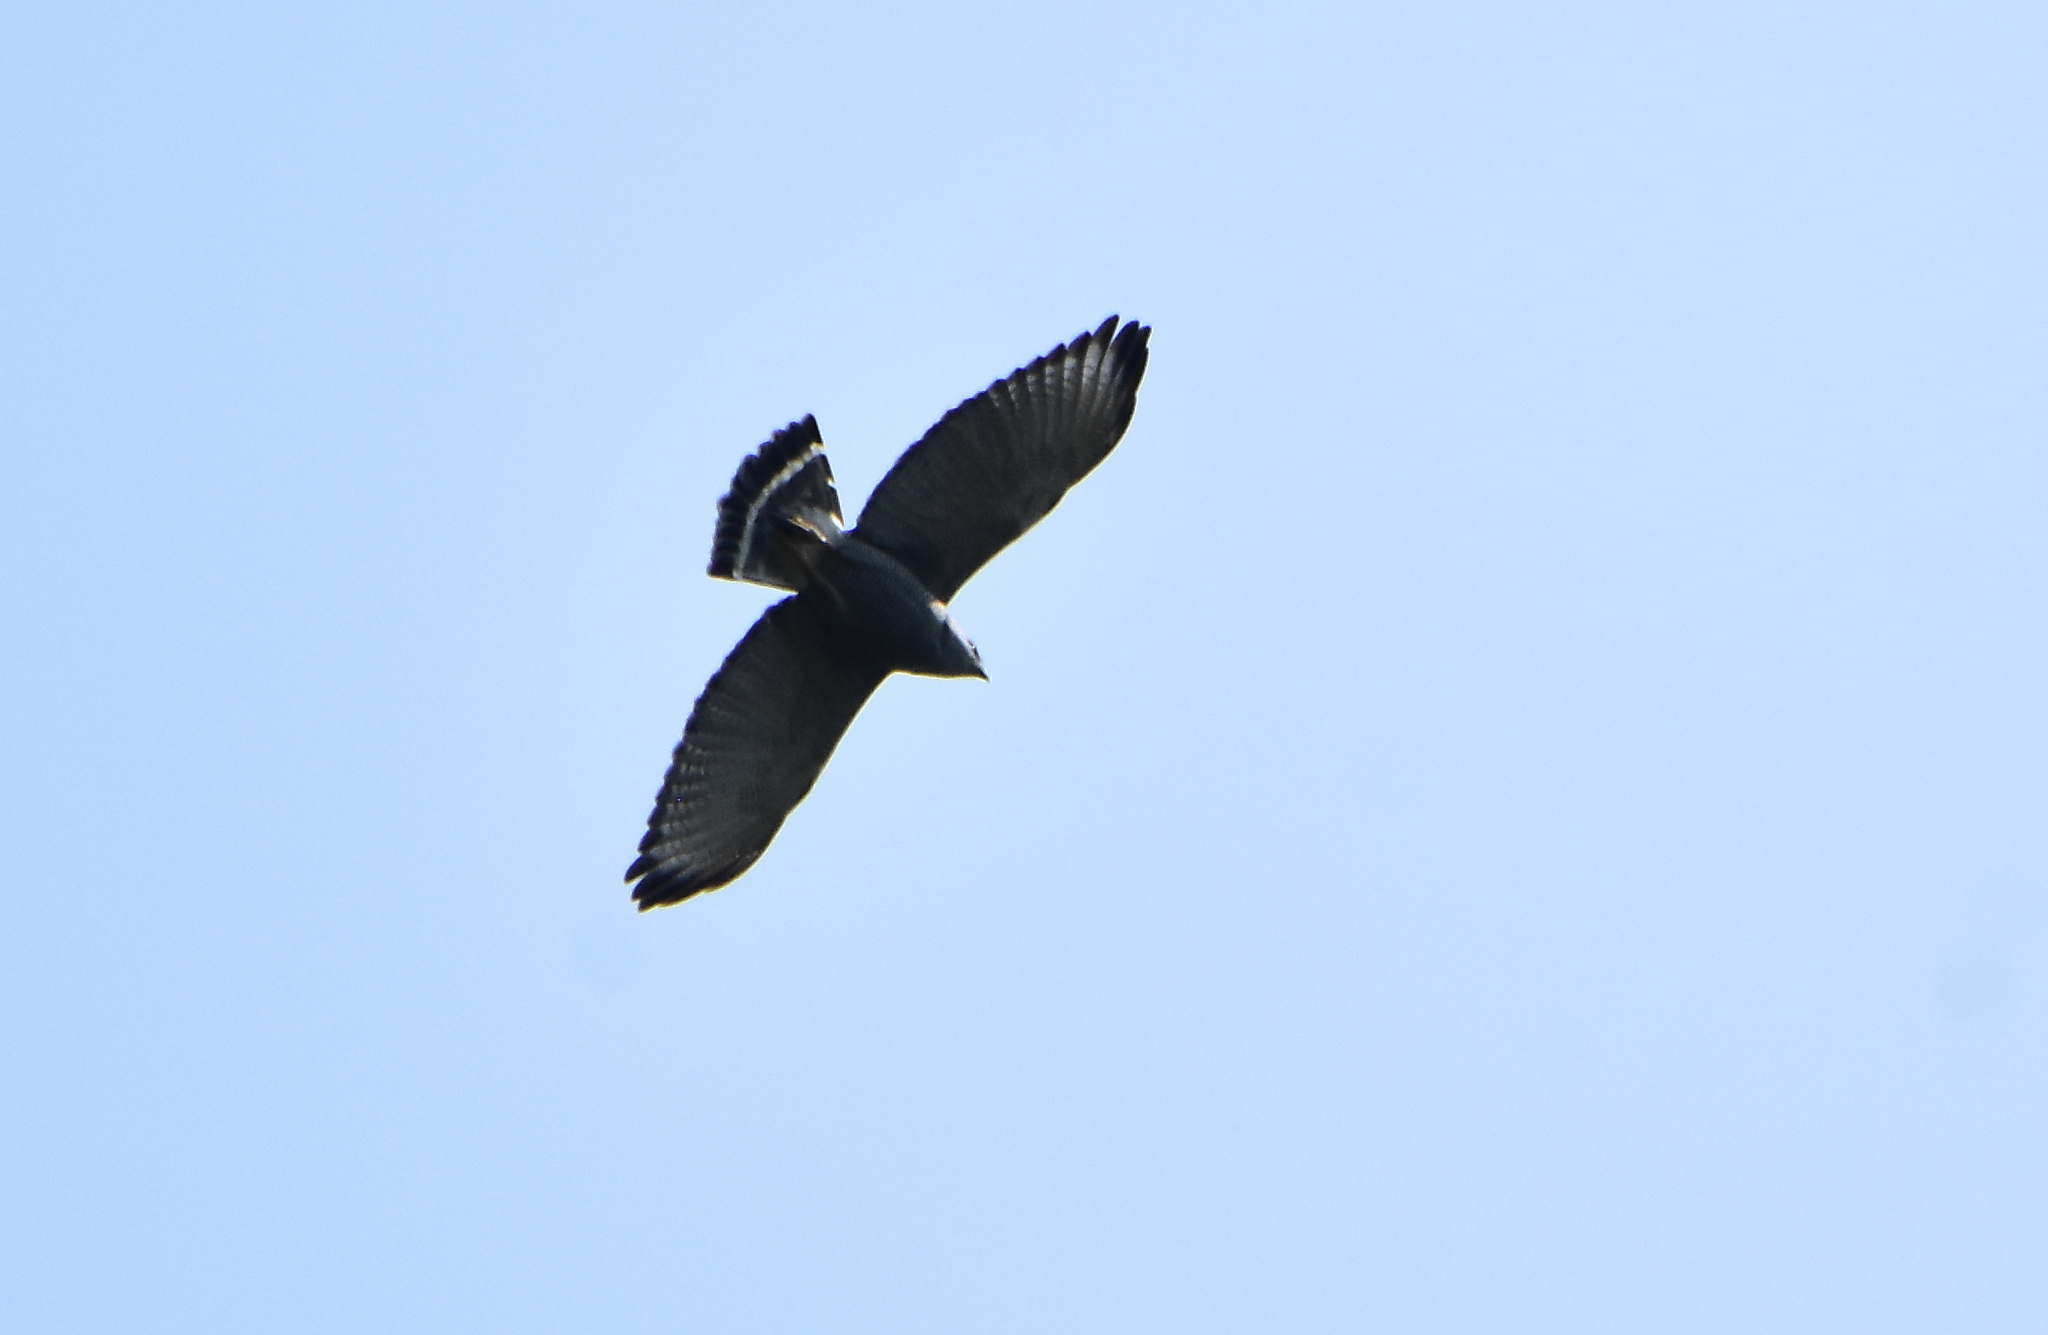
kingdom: Animalia
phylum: Chordata
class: Aves
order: Accipitriformes
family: Accipitridae
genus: Buteo
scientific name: Buteo nitidus
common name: Grey-lined hawk
